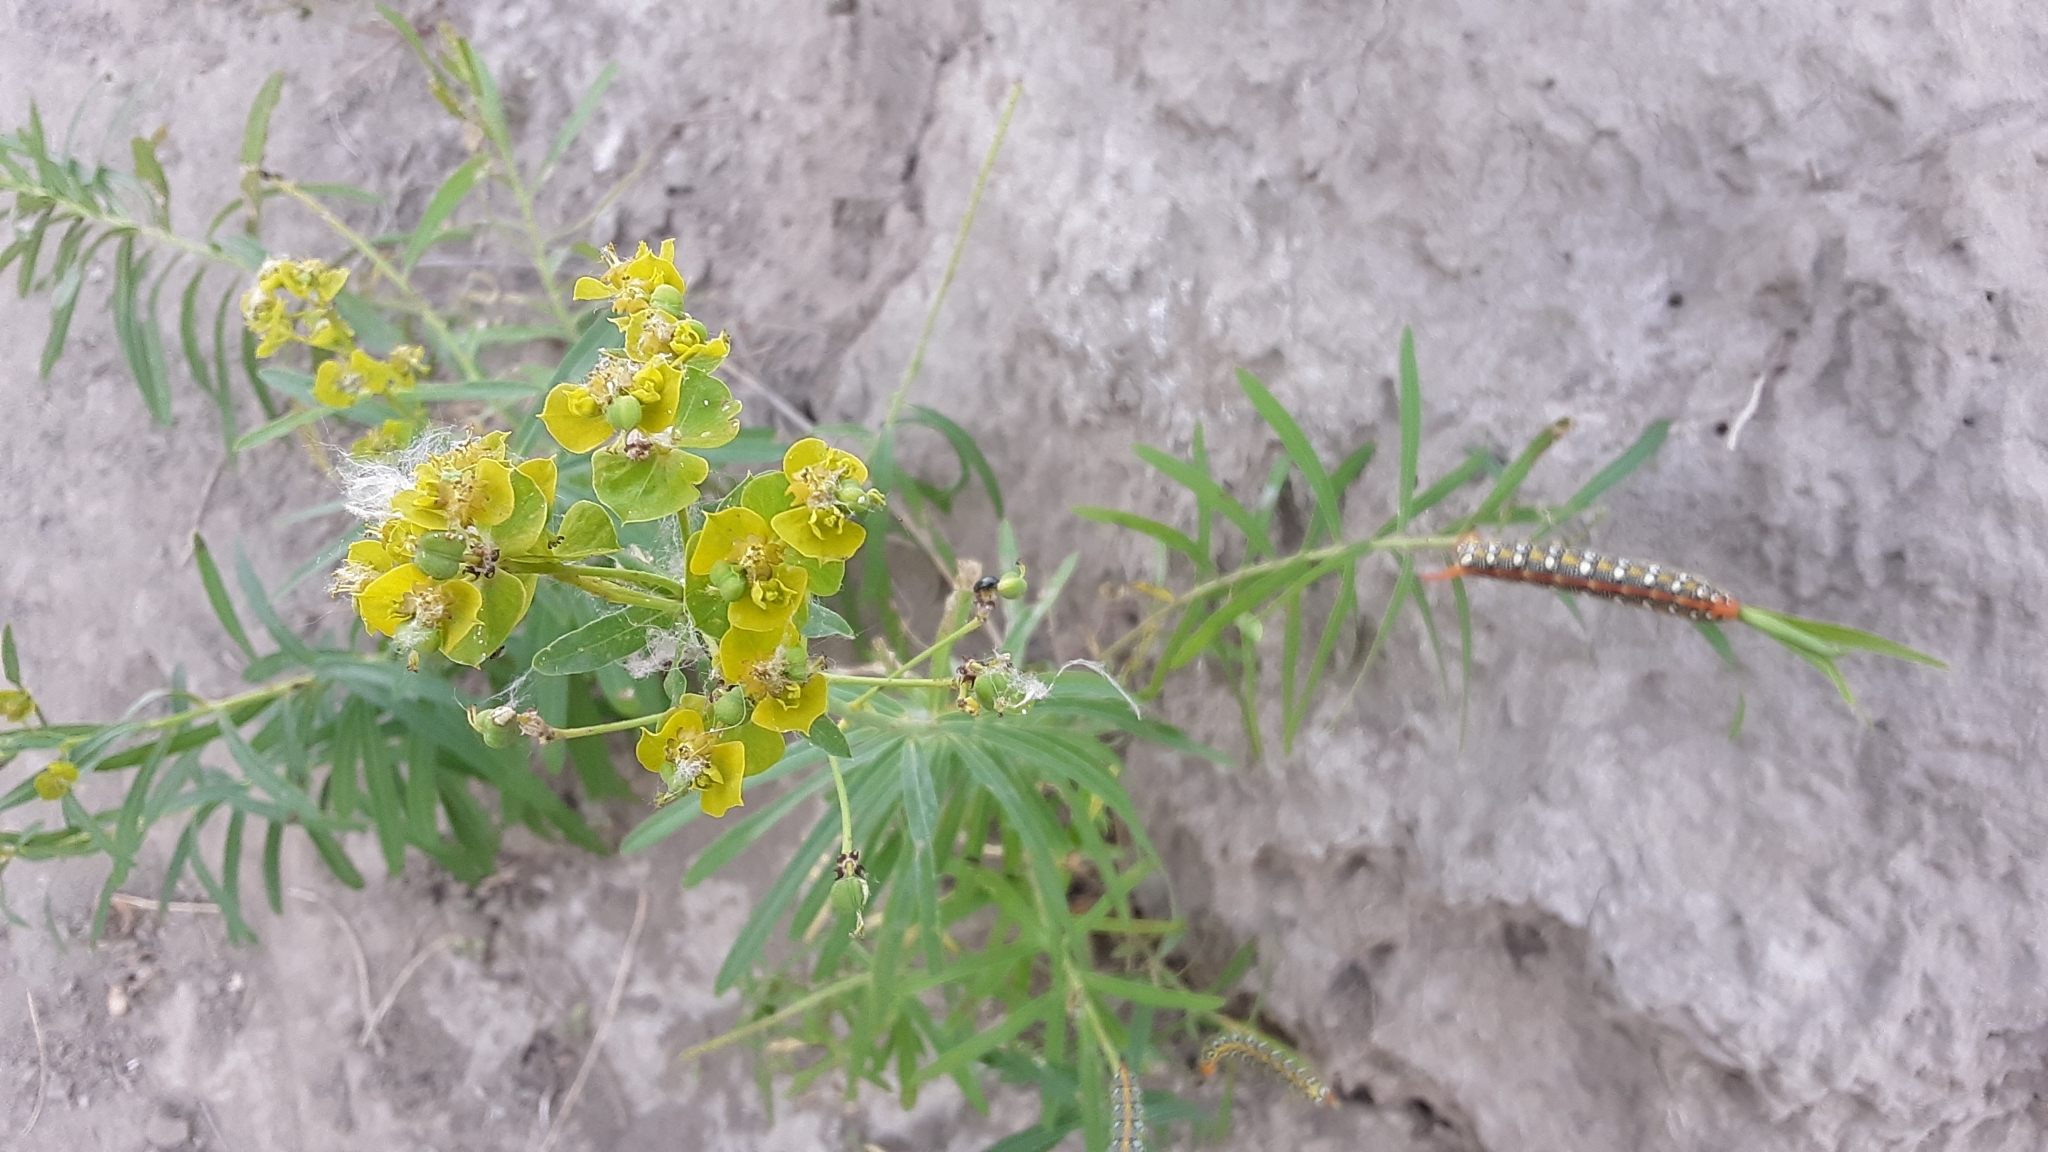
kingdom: Plantae
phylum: Tracheophyta
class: Magnoliopsida
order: Malpighiales
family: Euphorbiaceae
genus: Euphorbia
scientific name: Euphorbia virgata
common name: Leafy spurge
